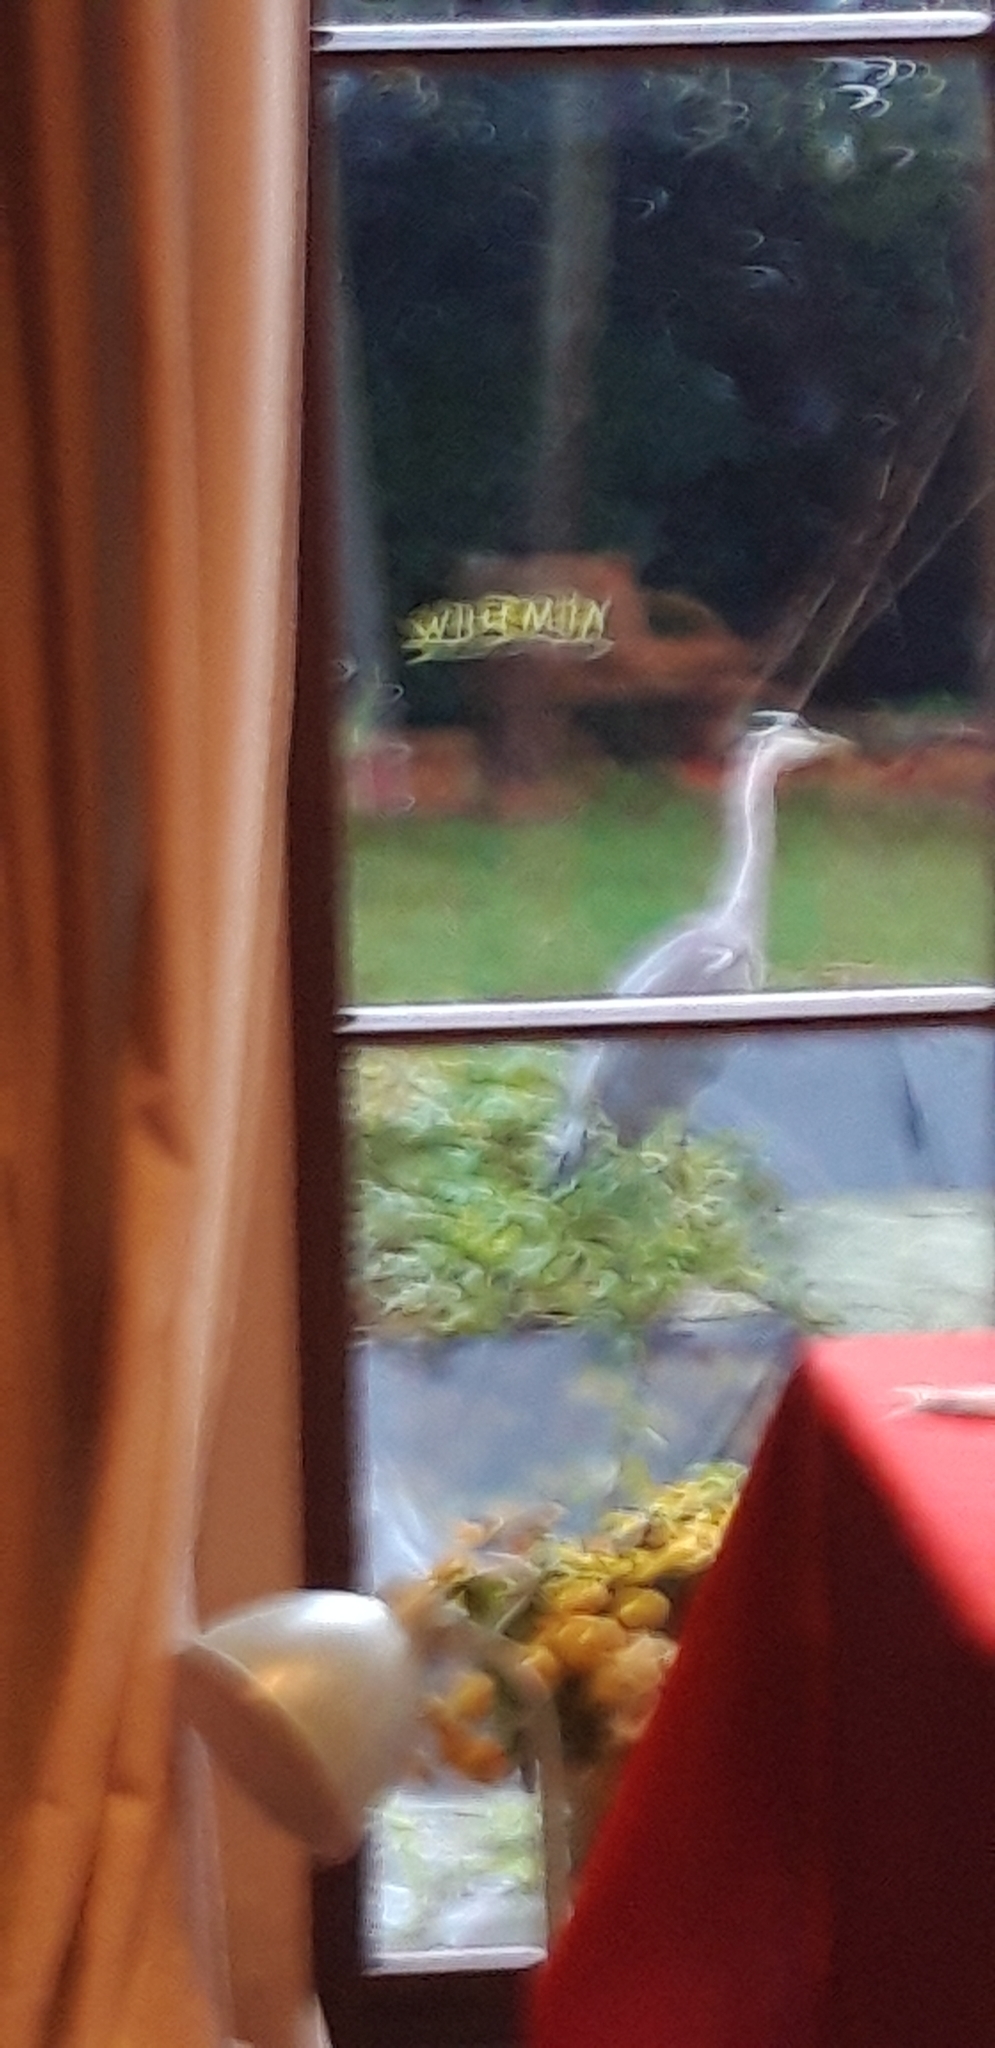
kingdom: Animalia
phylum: Chordata
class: Aves
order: Pelecaniformes
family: Ardeidae
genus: Ardea
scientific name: Ardea cinerea
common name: Grey heron
